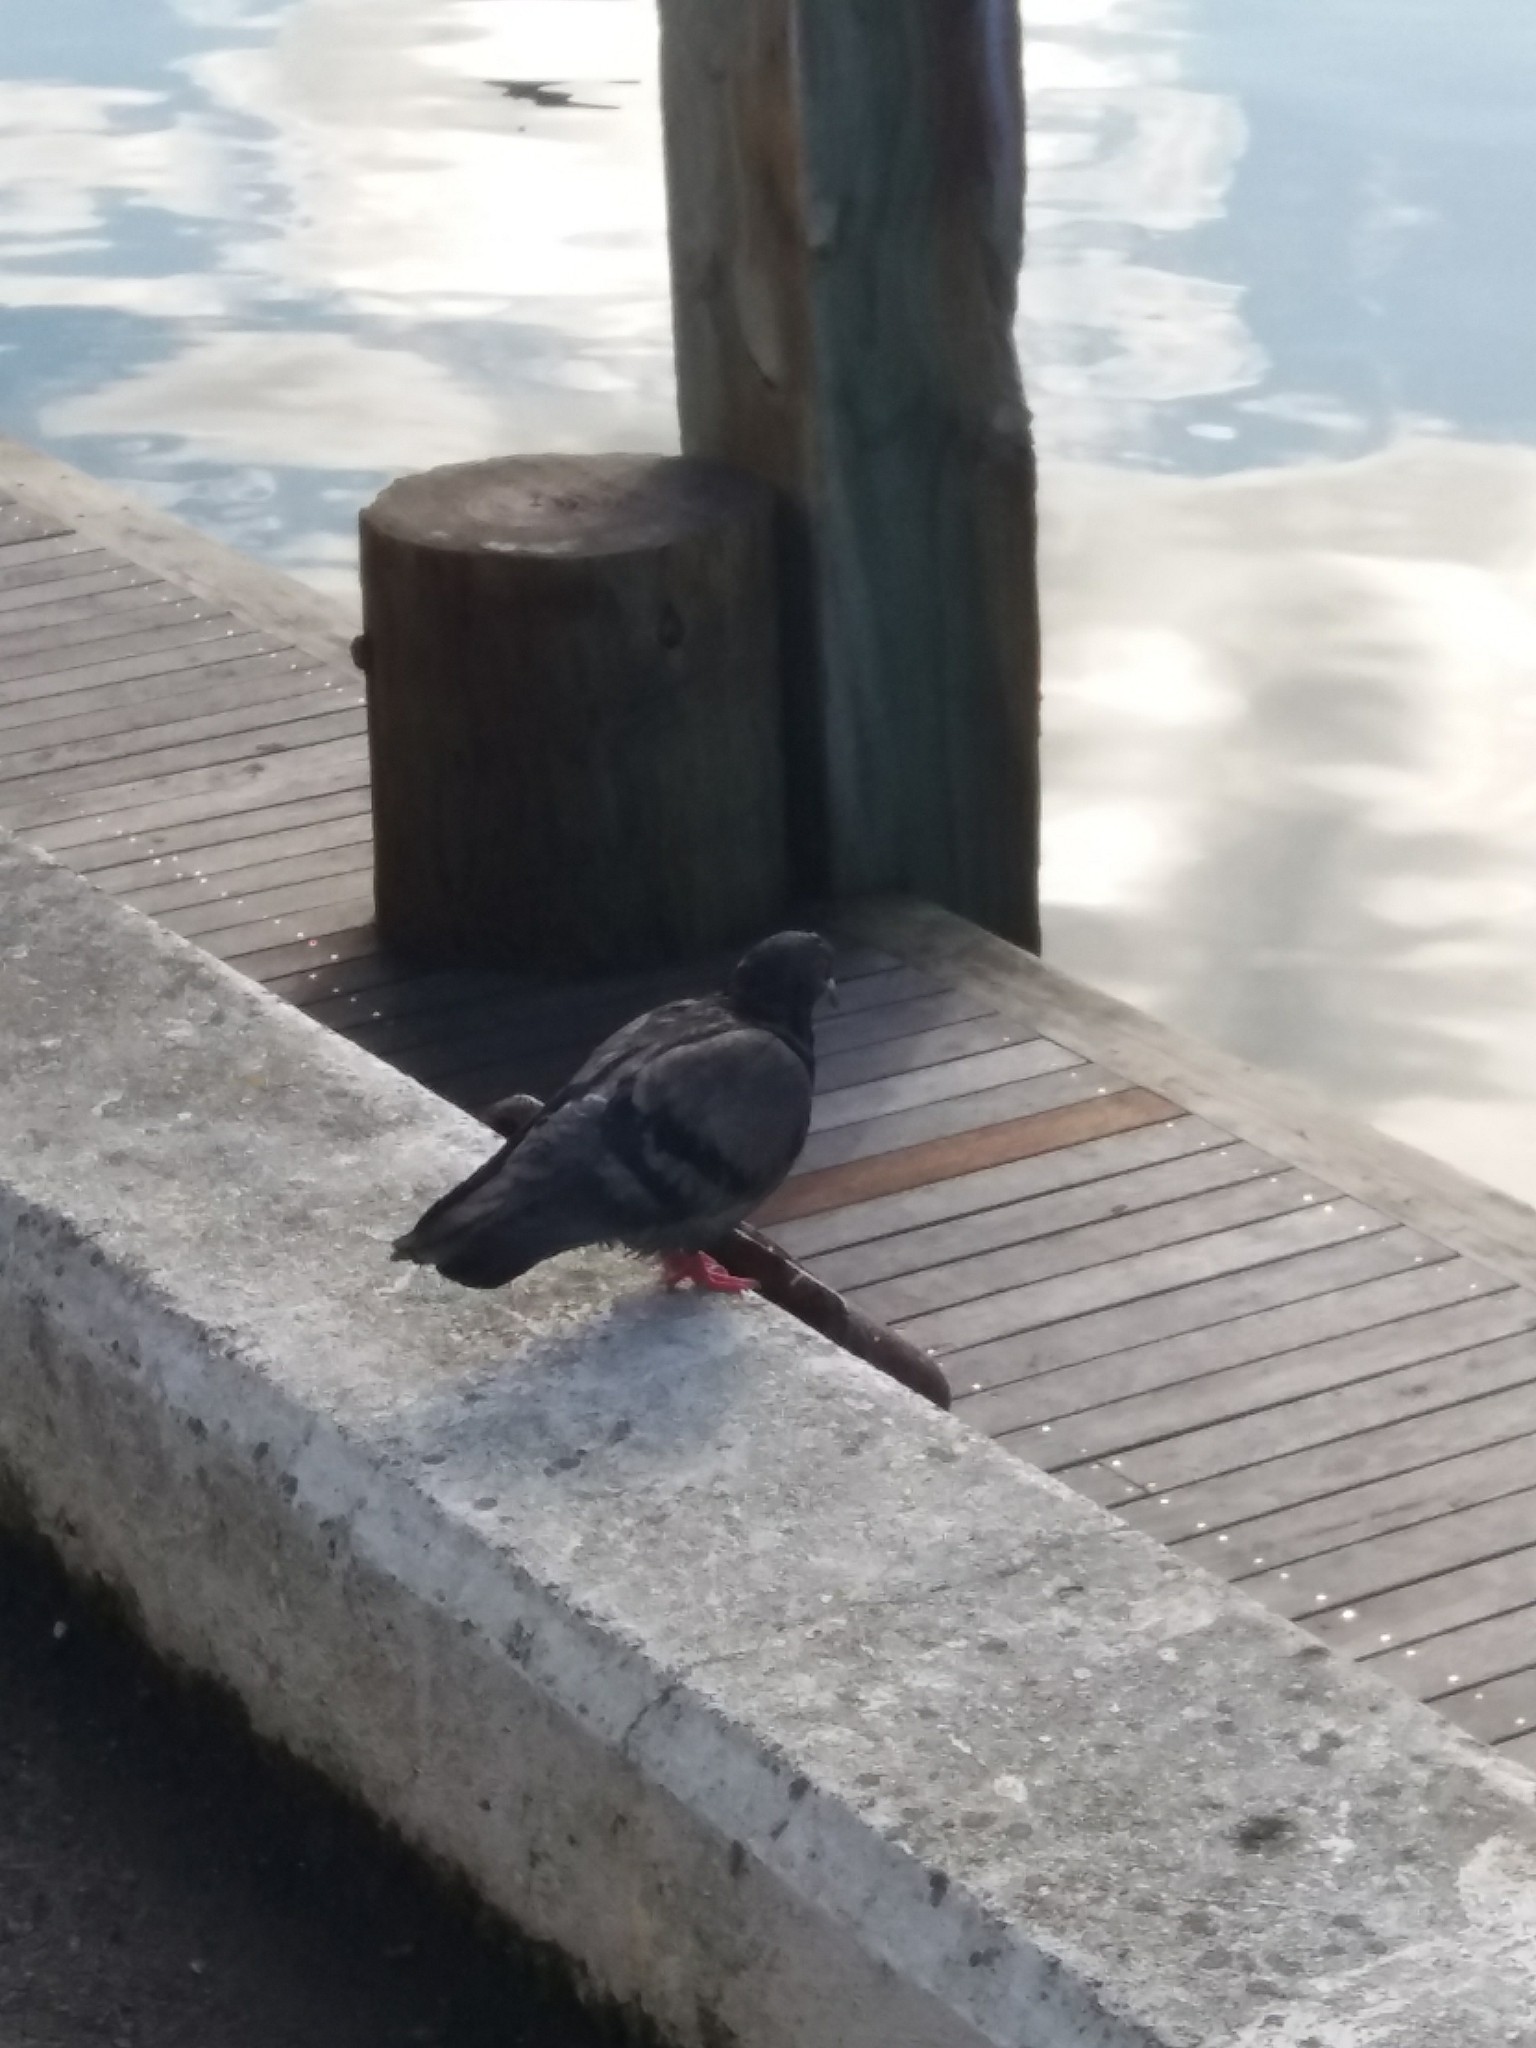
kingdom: Animalia
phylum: Chordata
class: Aves
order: Columbiformes
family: Columbidae
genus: Columba
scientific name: Columba livia
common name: Rock pigeon
